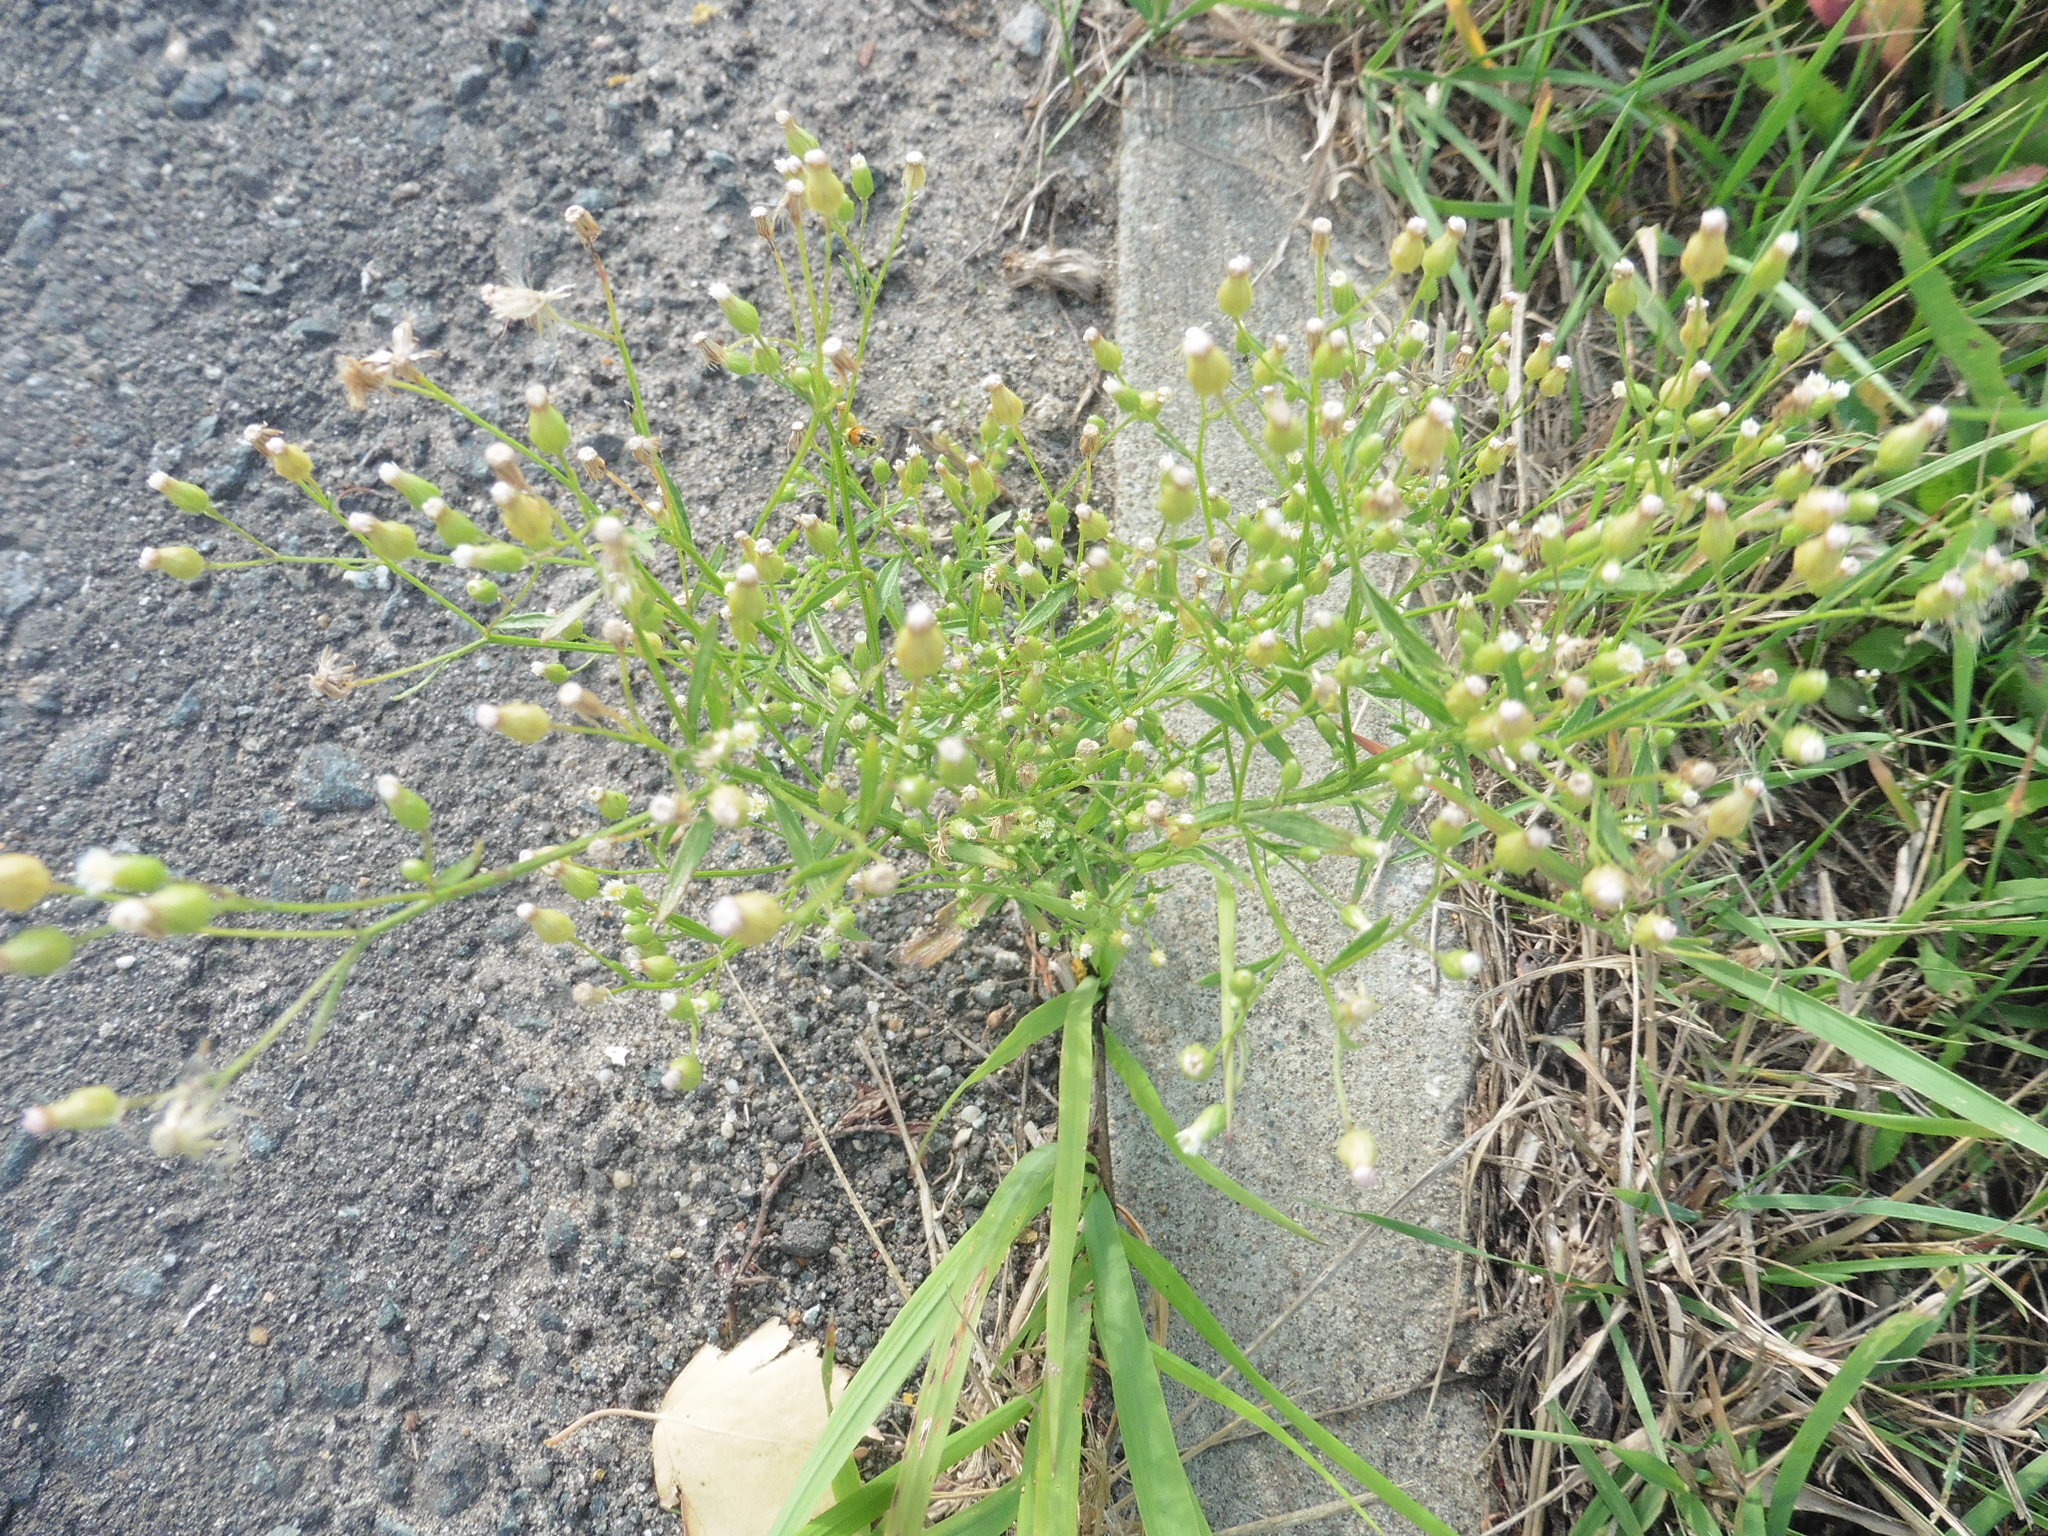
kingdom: Plantae
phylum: Tracheophyta
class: Magnoliopsida
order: Asterales
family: Asteraceae
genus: Erigeron
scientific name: Erigeron canadensis
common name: Canadian fleabane
